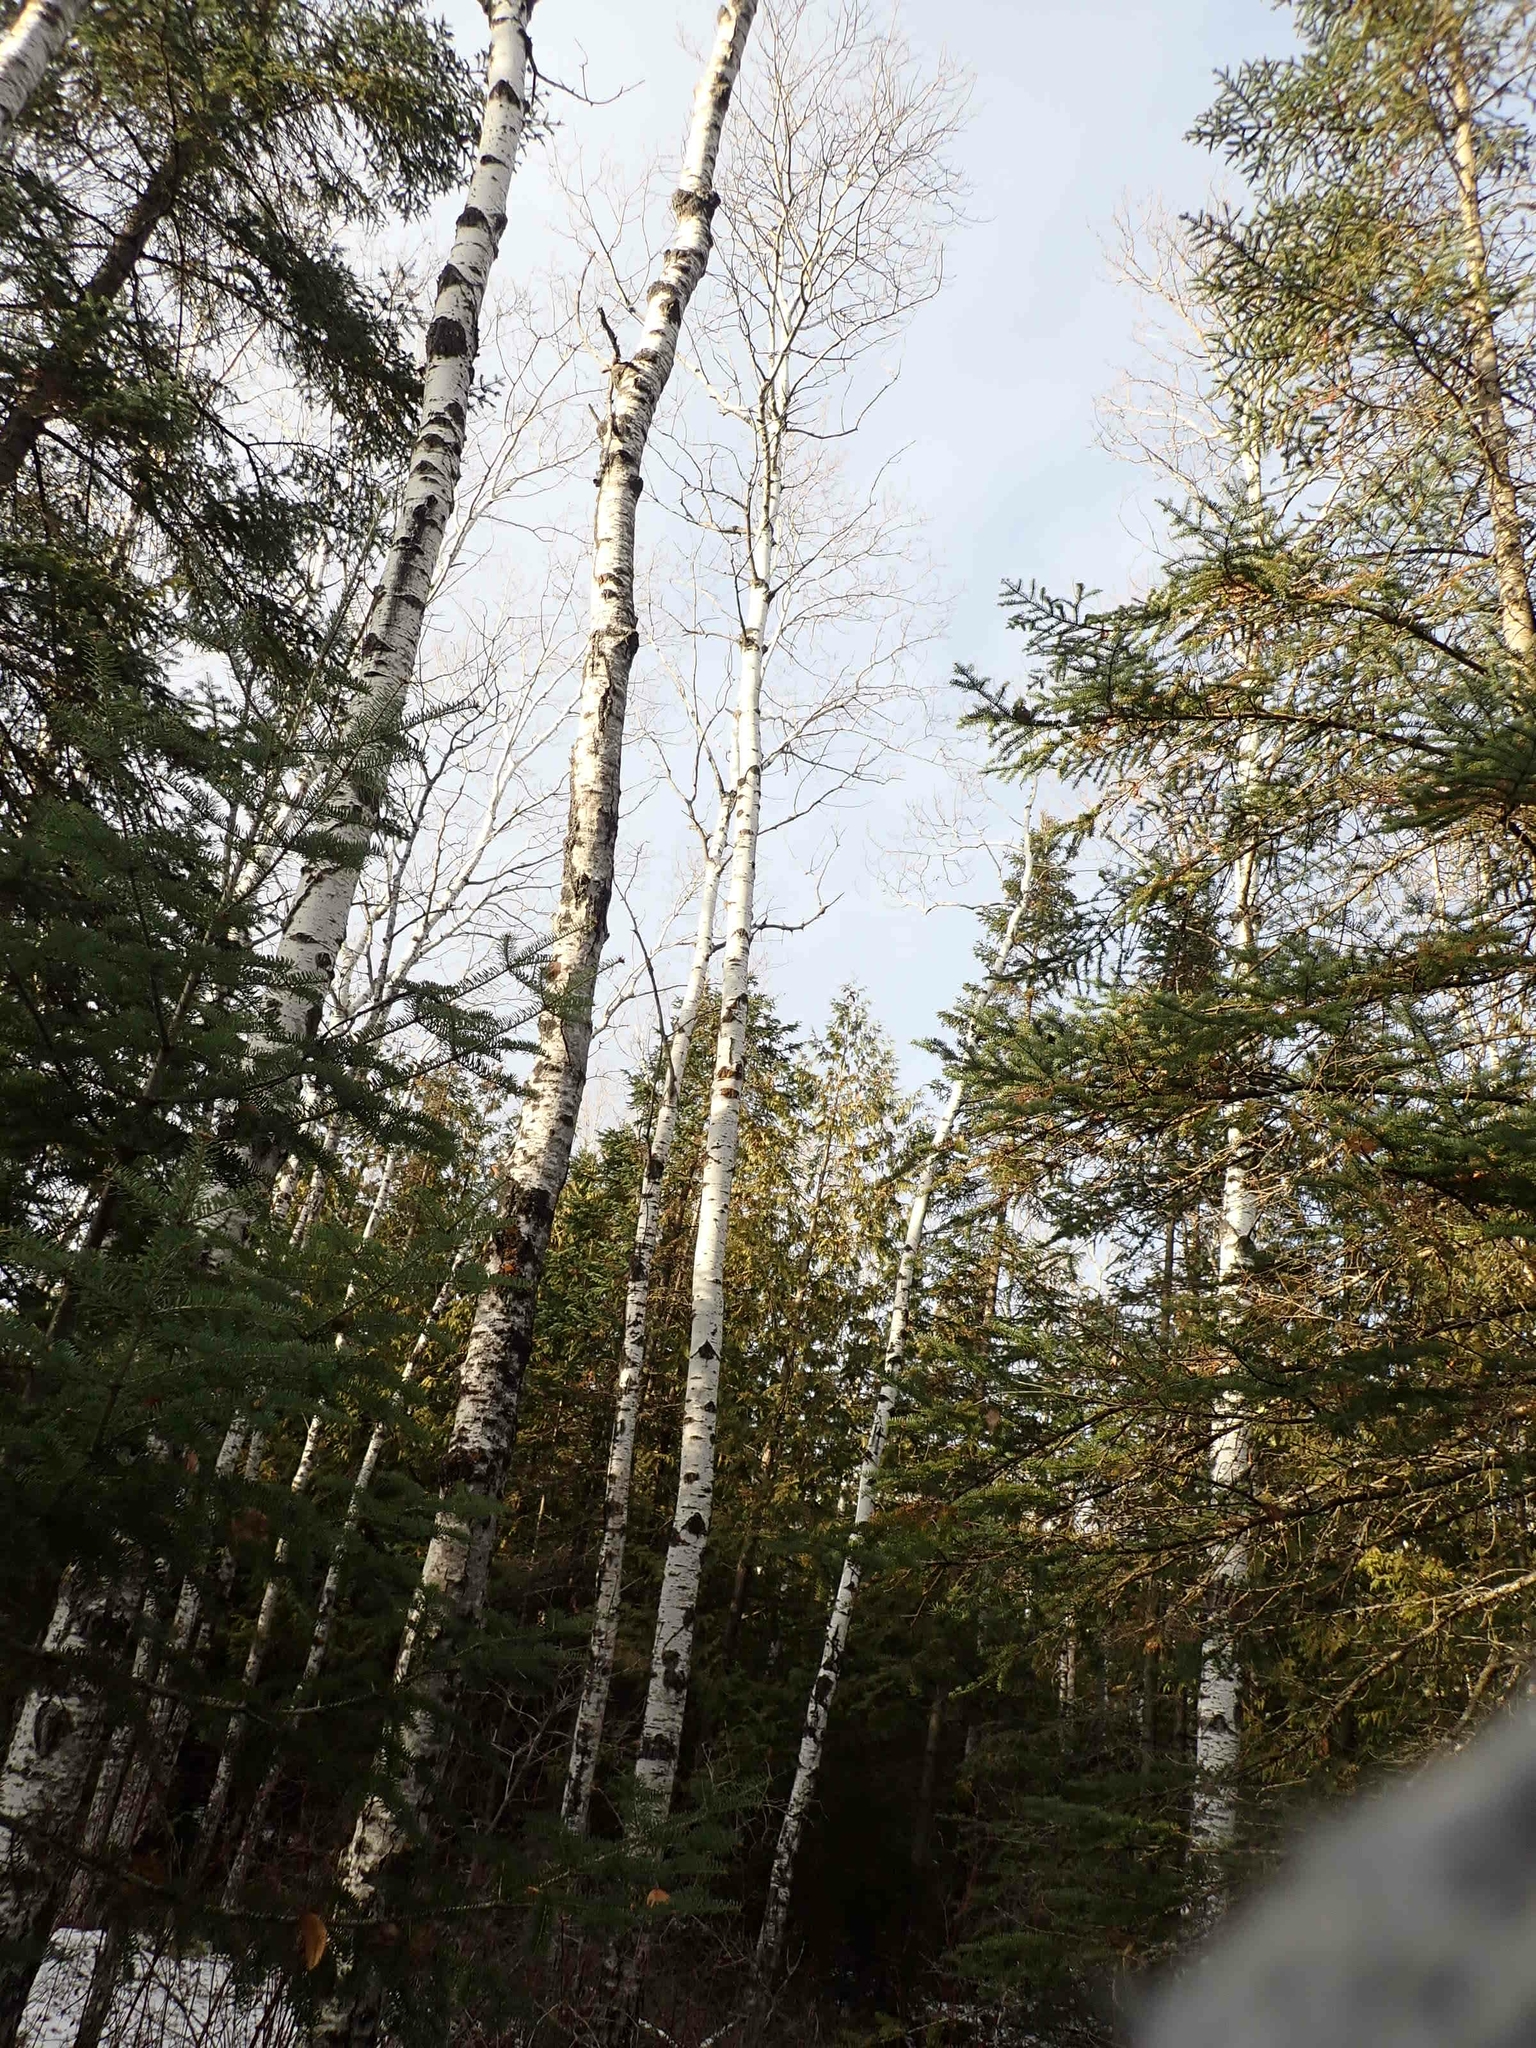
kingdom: Plantae
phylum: Tracheophyta
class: Magnoliopsida
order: Malpighiales
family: Salicaceae
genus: Populus
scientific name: Populus tremuloides
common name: Quaking aspen
